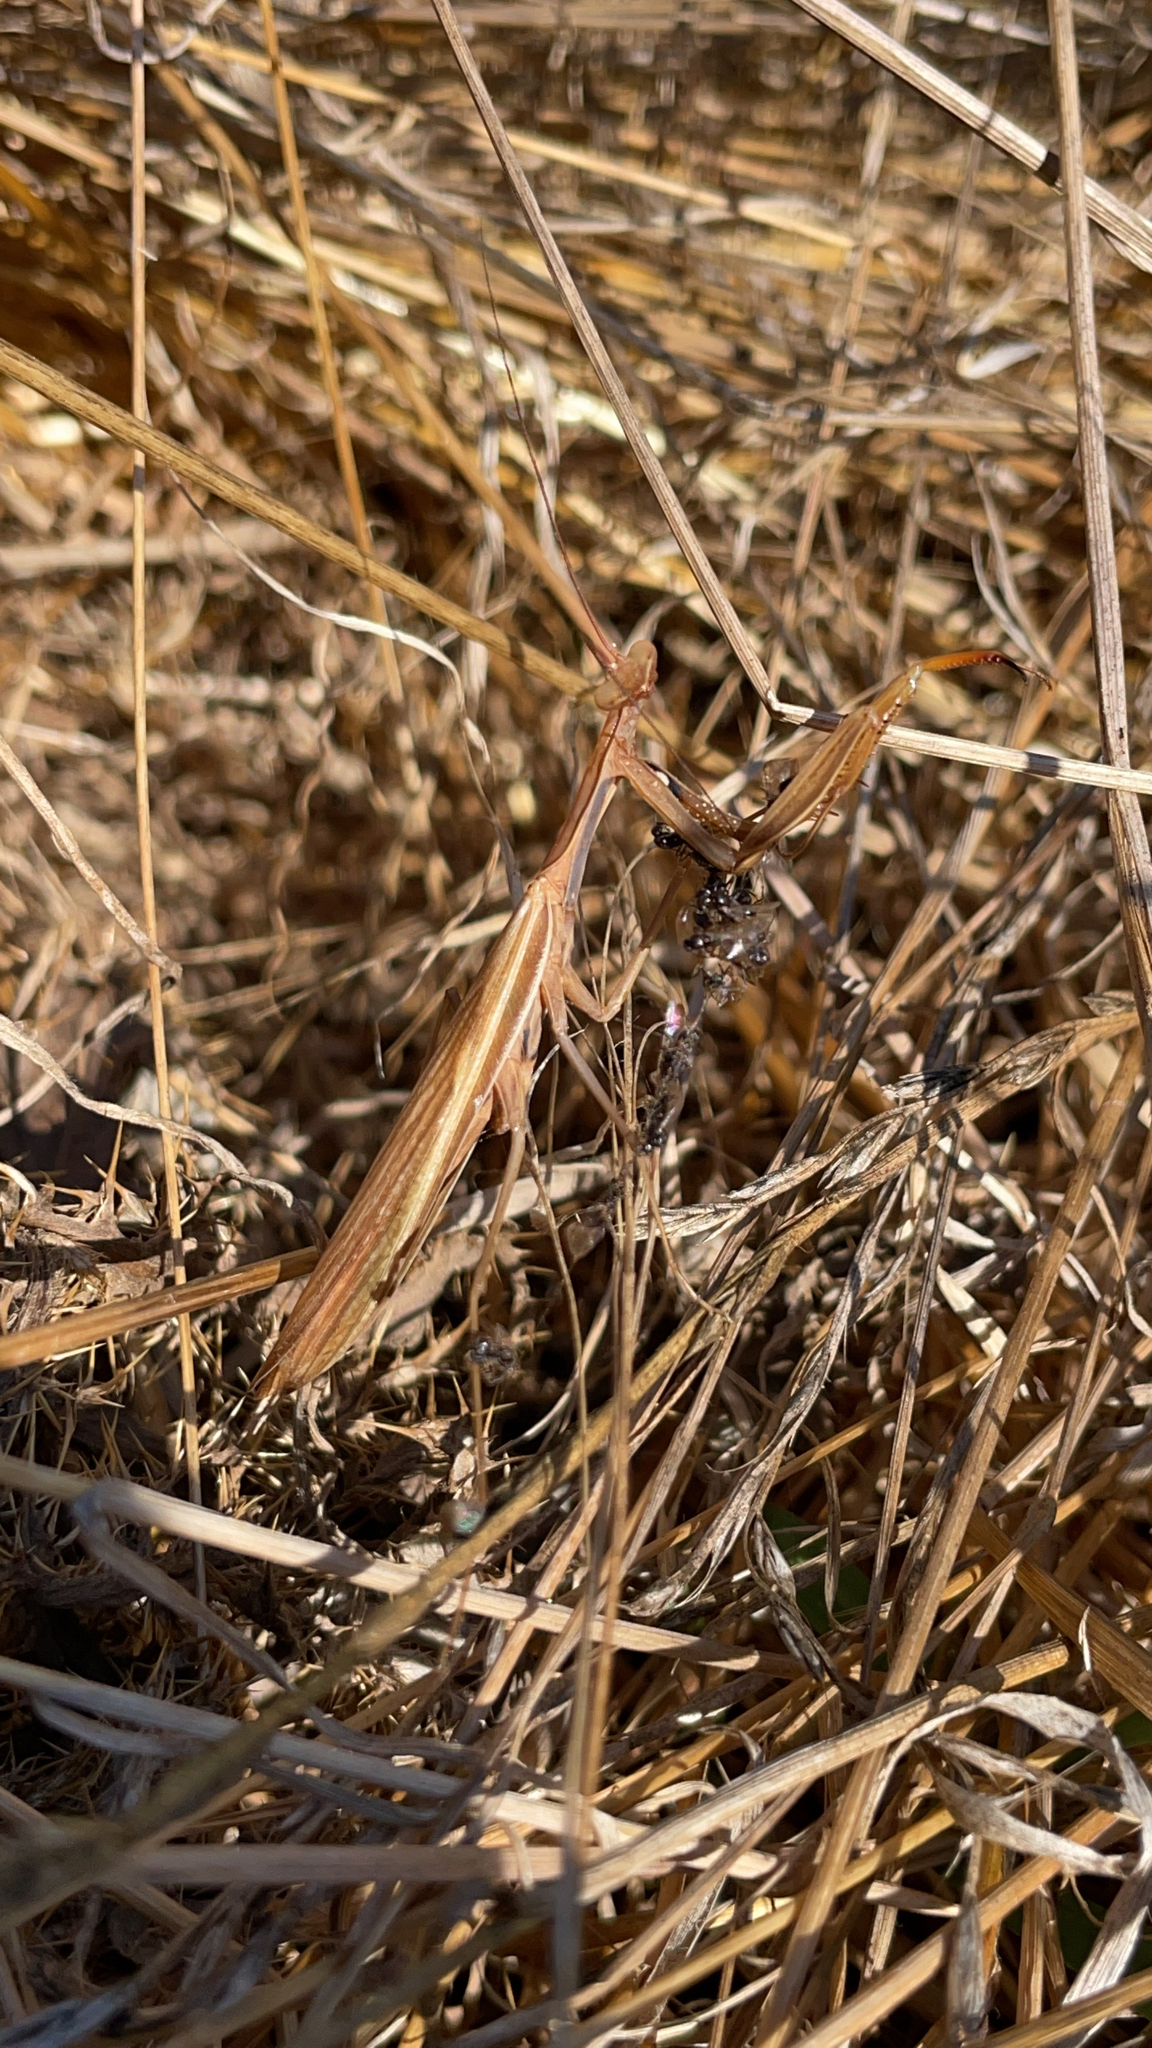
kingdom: Animalia
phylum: Arthropoda
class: Insecta
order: Mantodea
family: Mantidae
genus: Mantis
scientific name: Mantis religiosa
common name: Praying mantis
